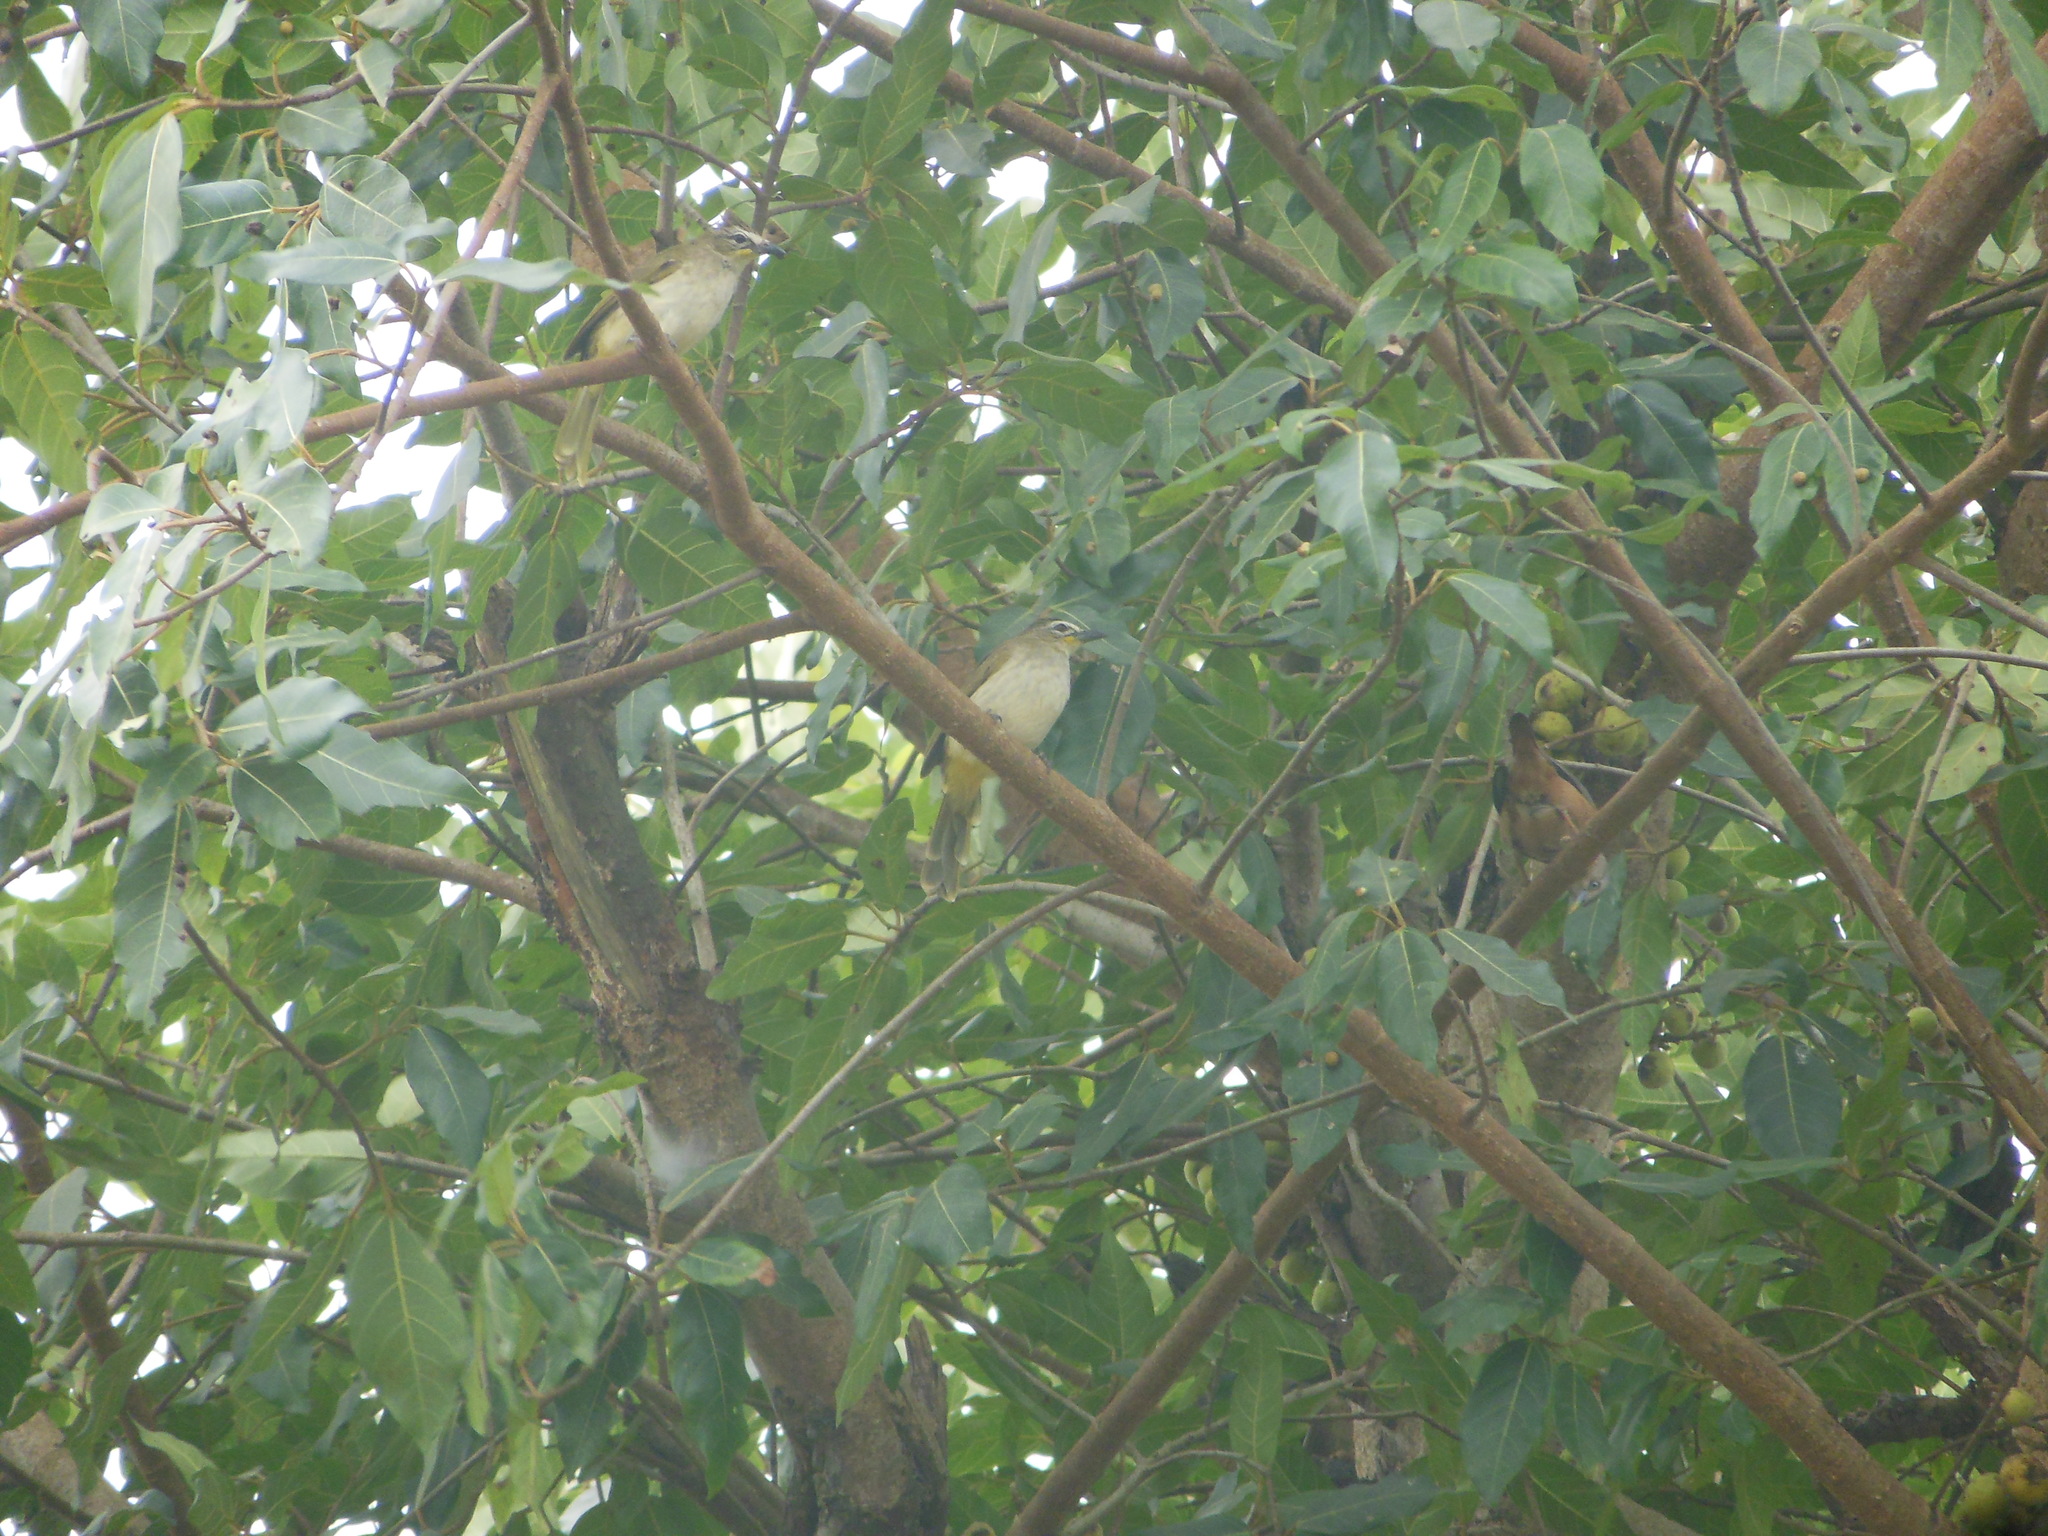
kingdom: Animalia
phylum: Chordata
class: Aves
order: Passeriformes
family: Pycnonotidae
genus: Pycnonotus
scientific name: Pycnonotus luteolus
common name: White-browed bulbul
